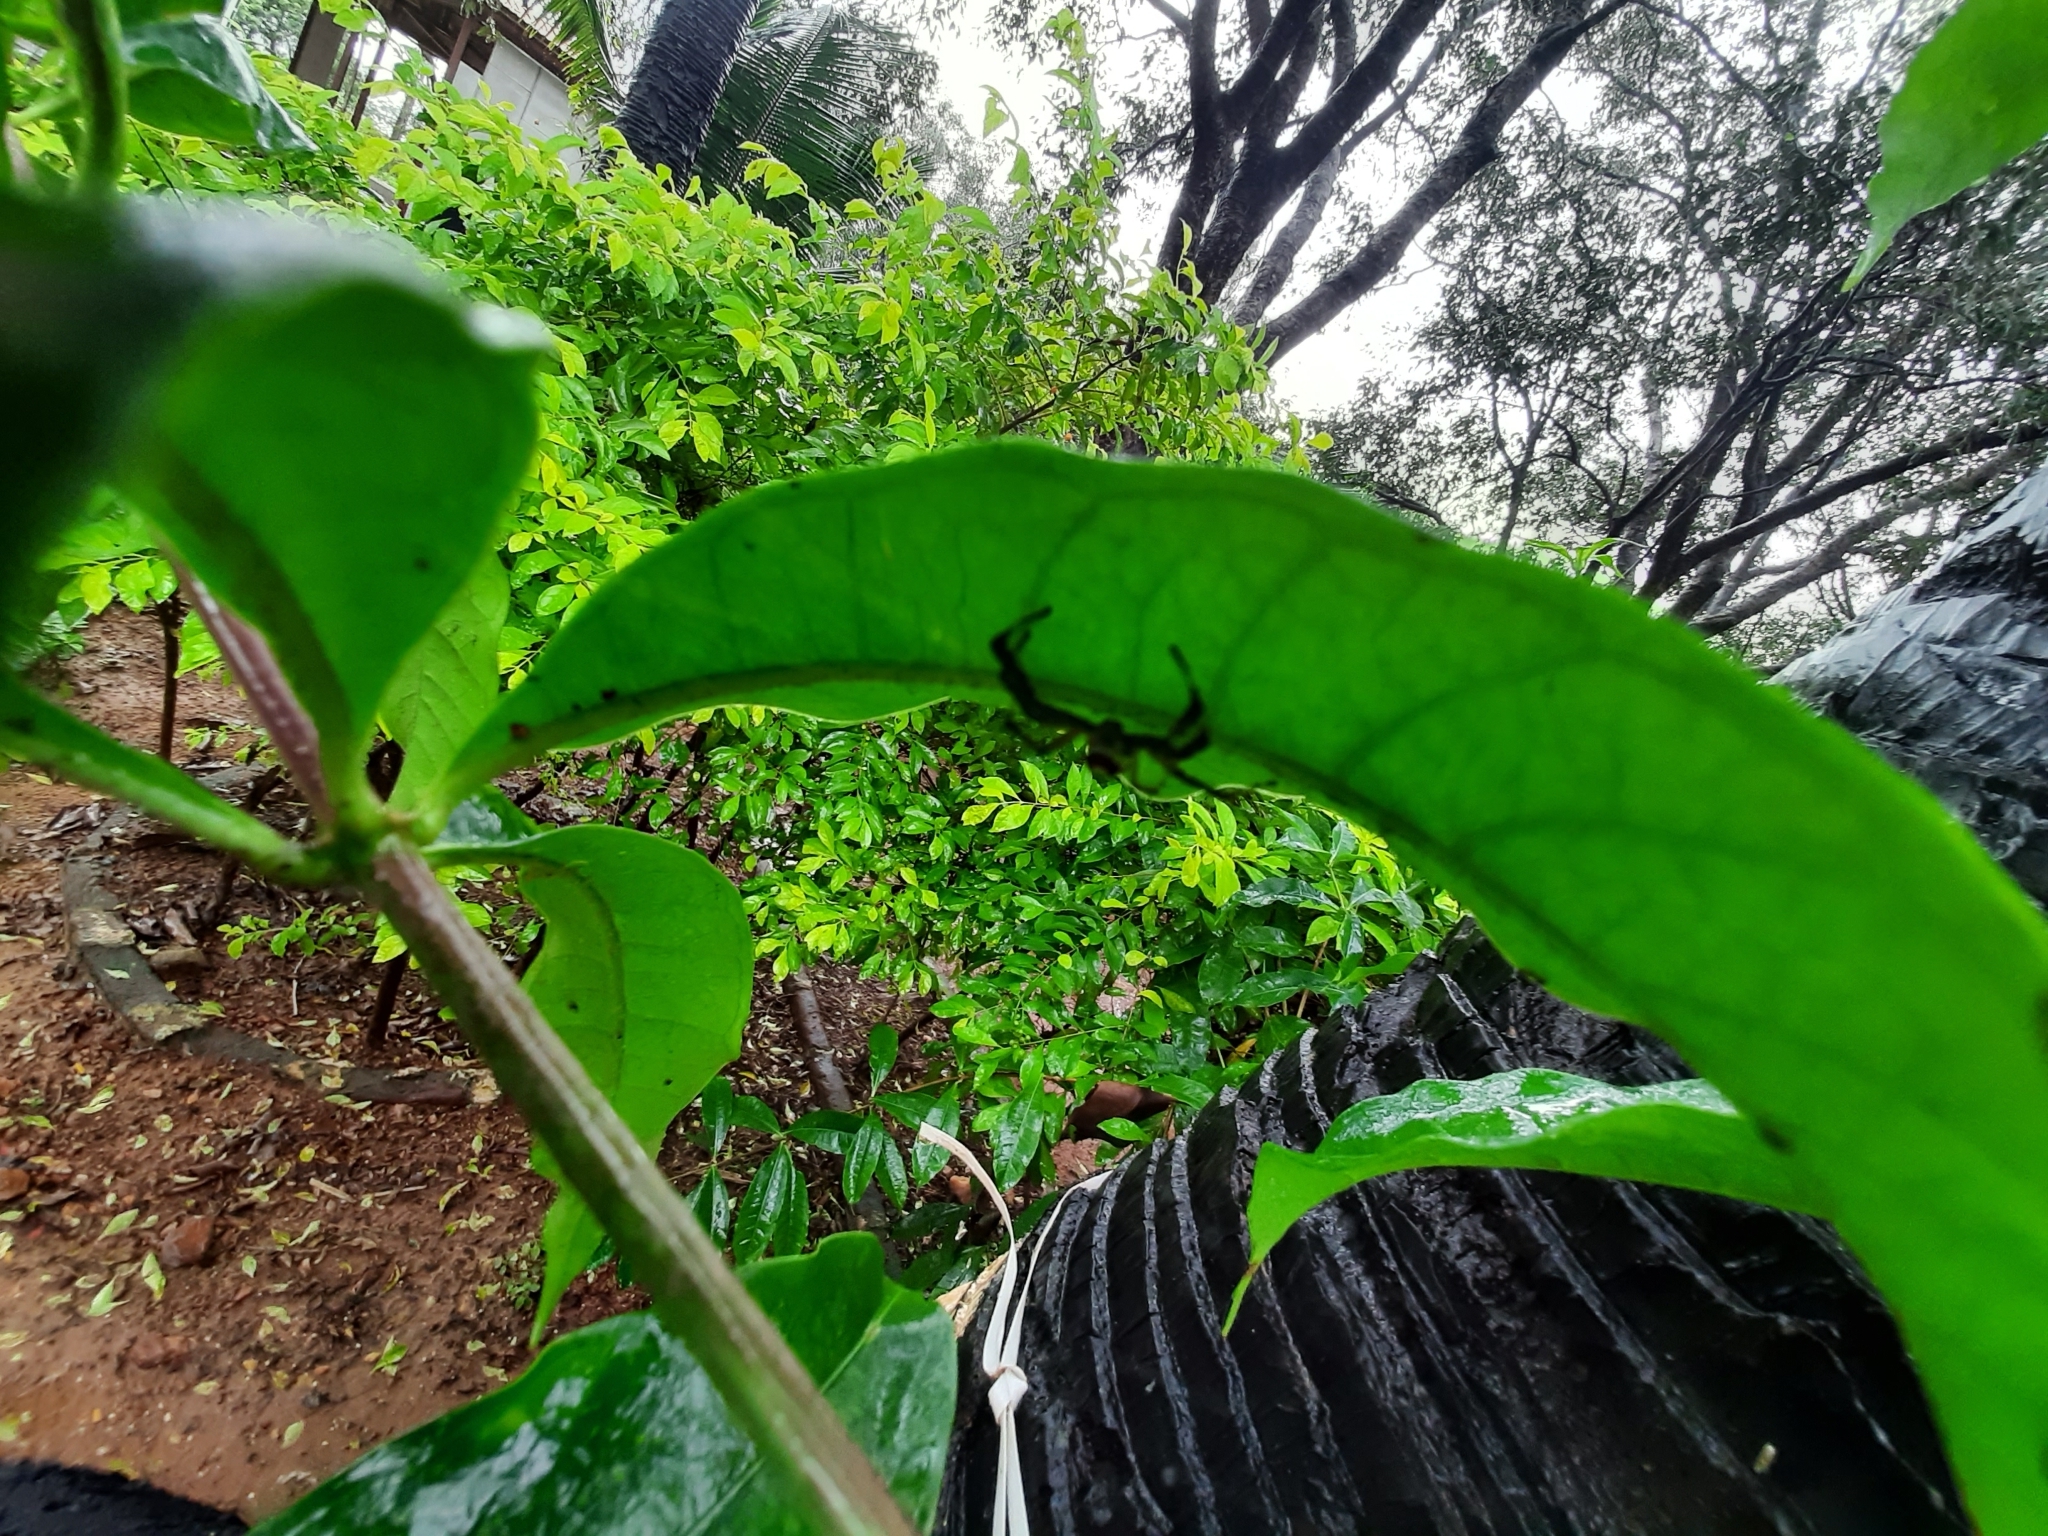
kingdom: Animalia
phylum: Arthropoda
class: Arachnida
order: Araneae
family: Salticidae
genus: Telamonia
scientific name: Telamonia dimidiata
